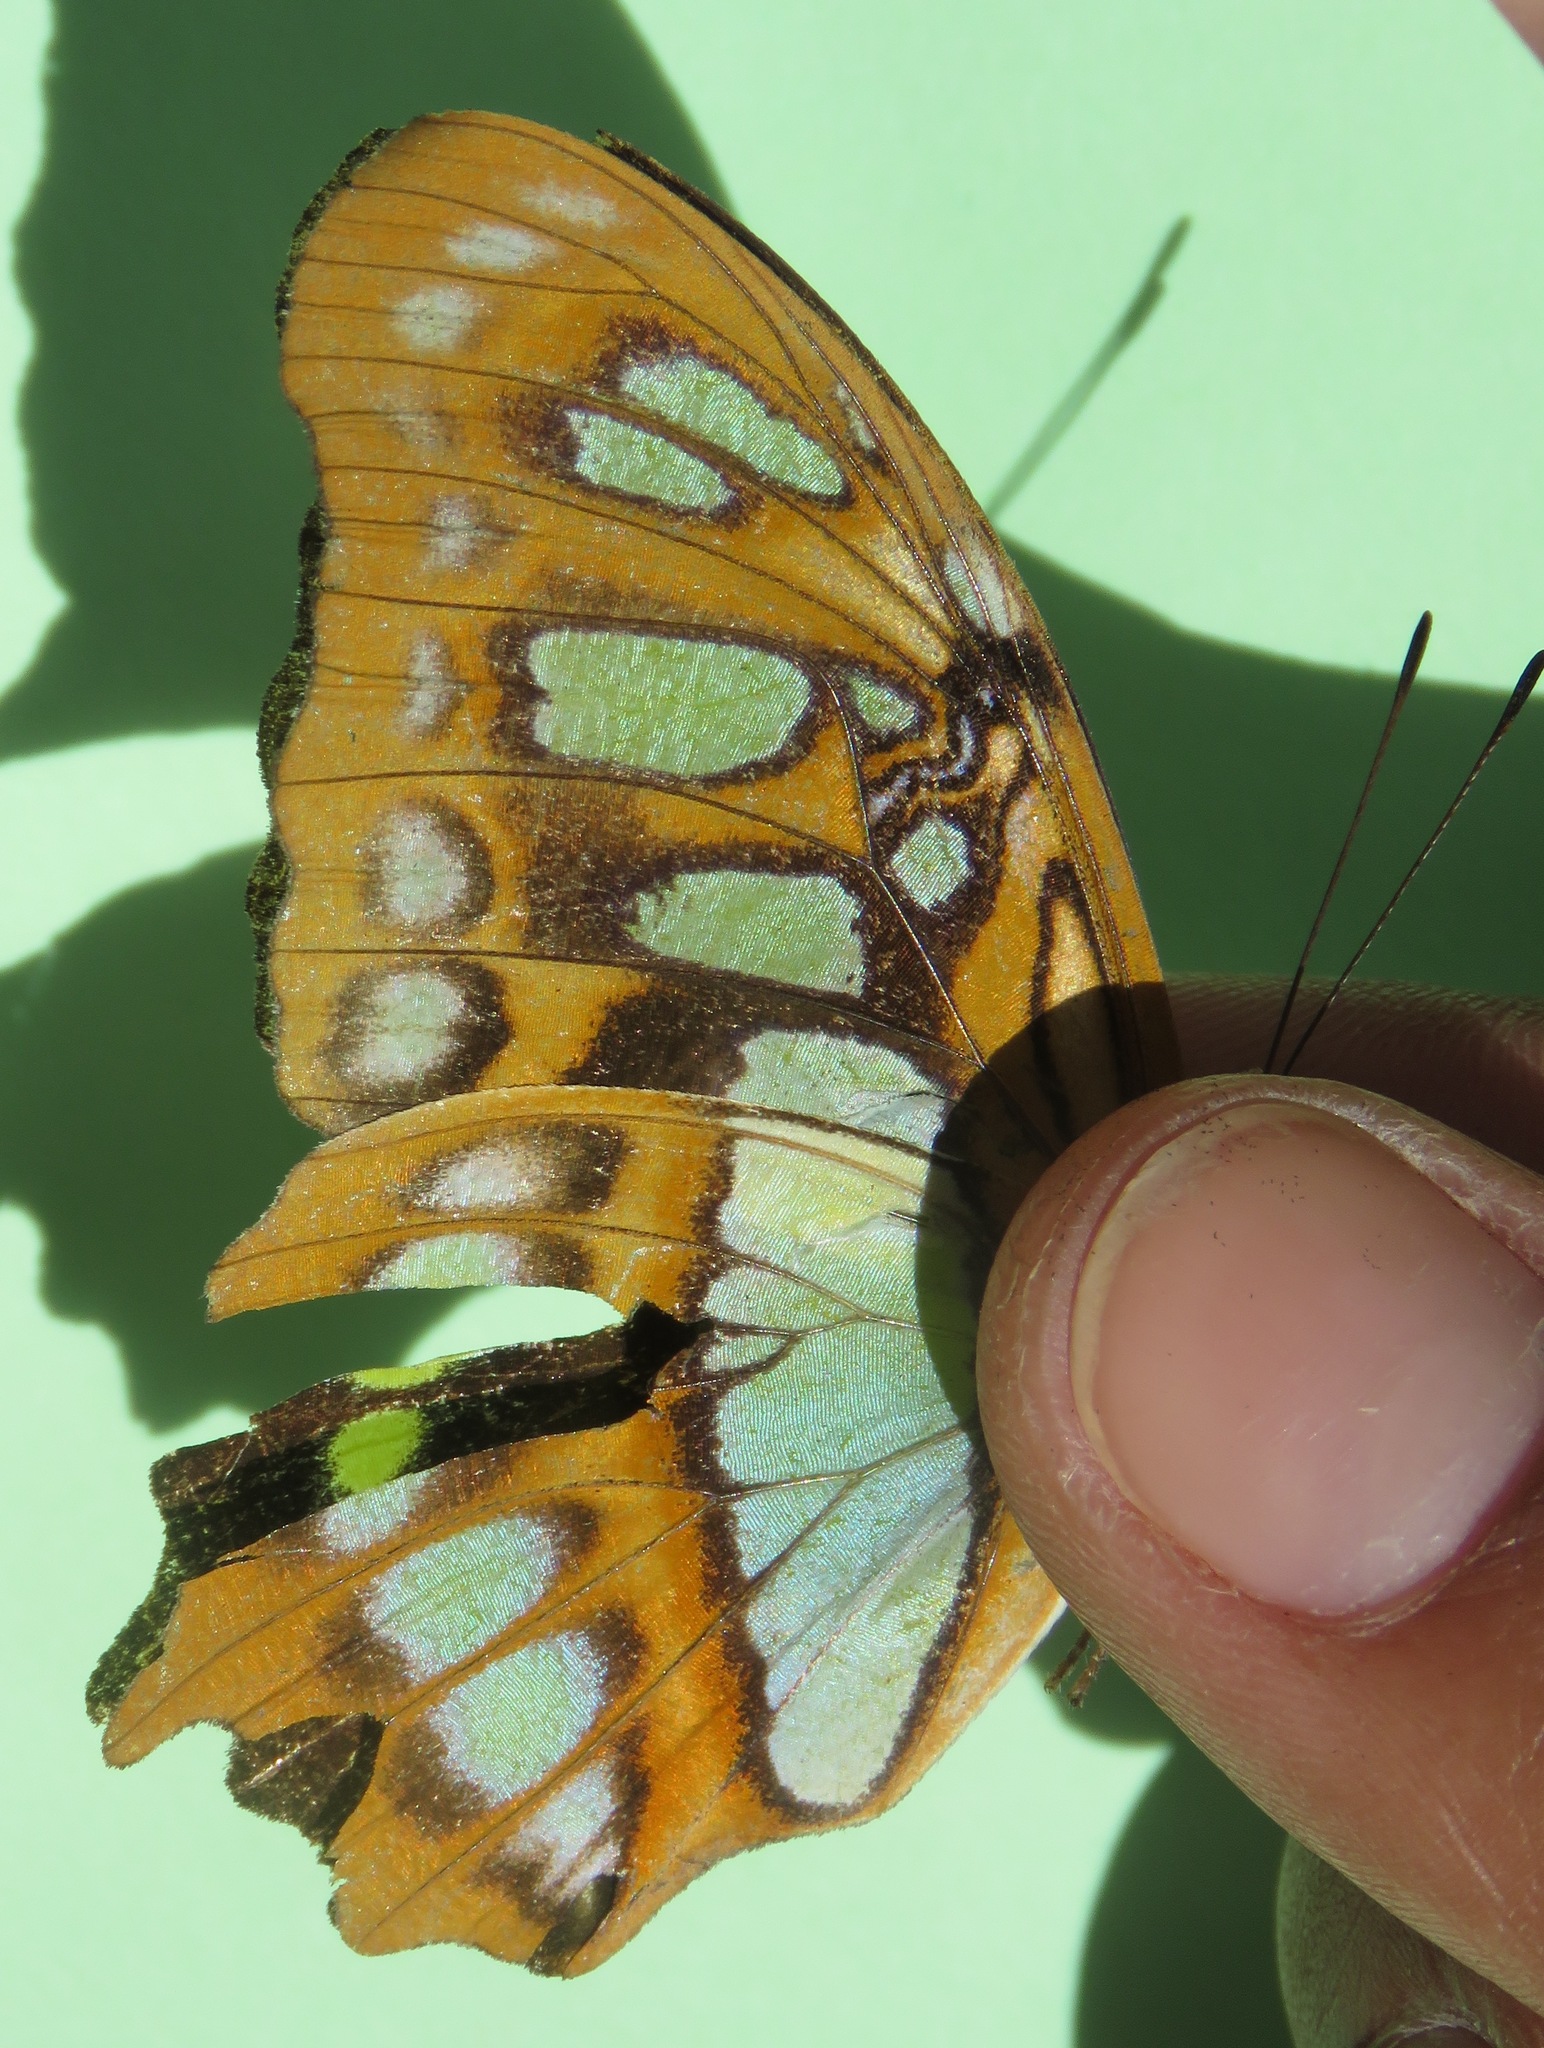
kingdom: Animalia
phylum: Arthropoda
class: Insecta
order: Lepidoptera
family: Nymphalidae
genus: Siproeta
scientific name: Siproeta stelenes
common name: Malachite
